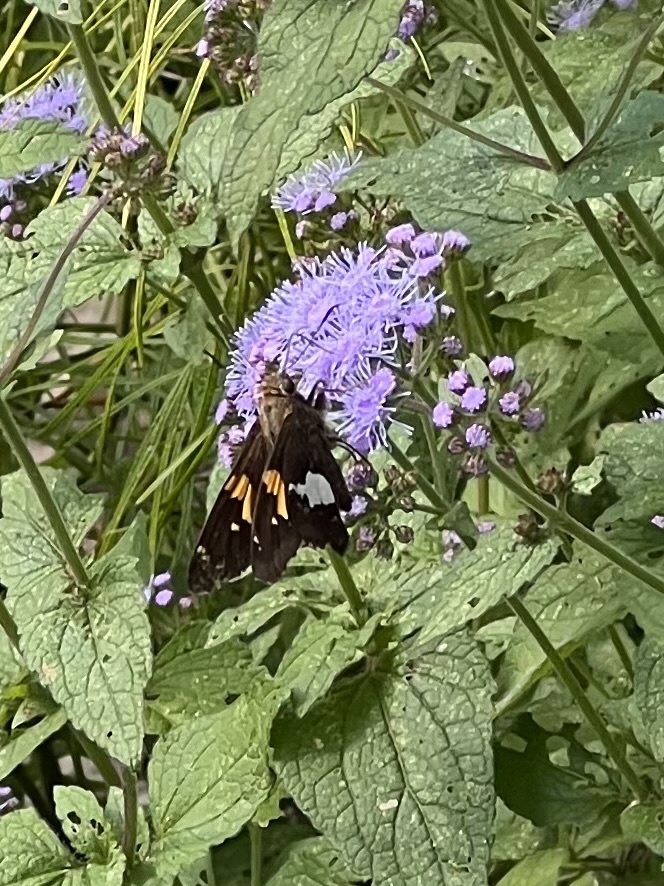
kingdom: Animalia
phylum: Arthropoda
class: Insecta
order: Lepidoptera
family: Hesperiidae
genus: Epargyreus
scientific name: Epargyreus clarus
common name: Silver-spotted skipper
